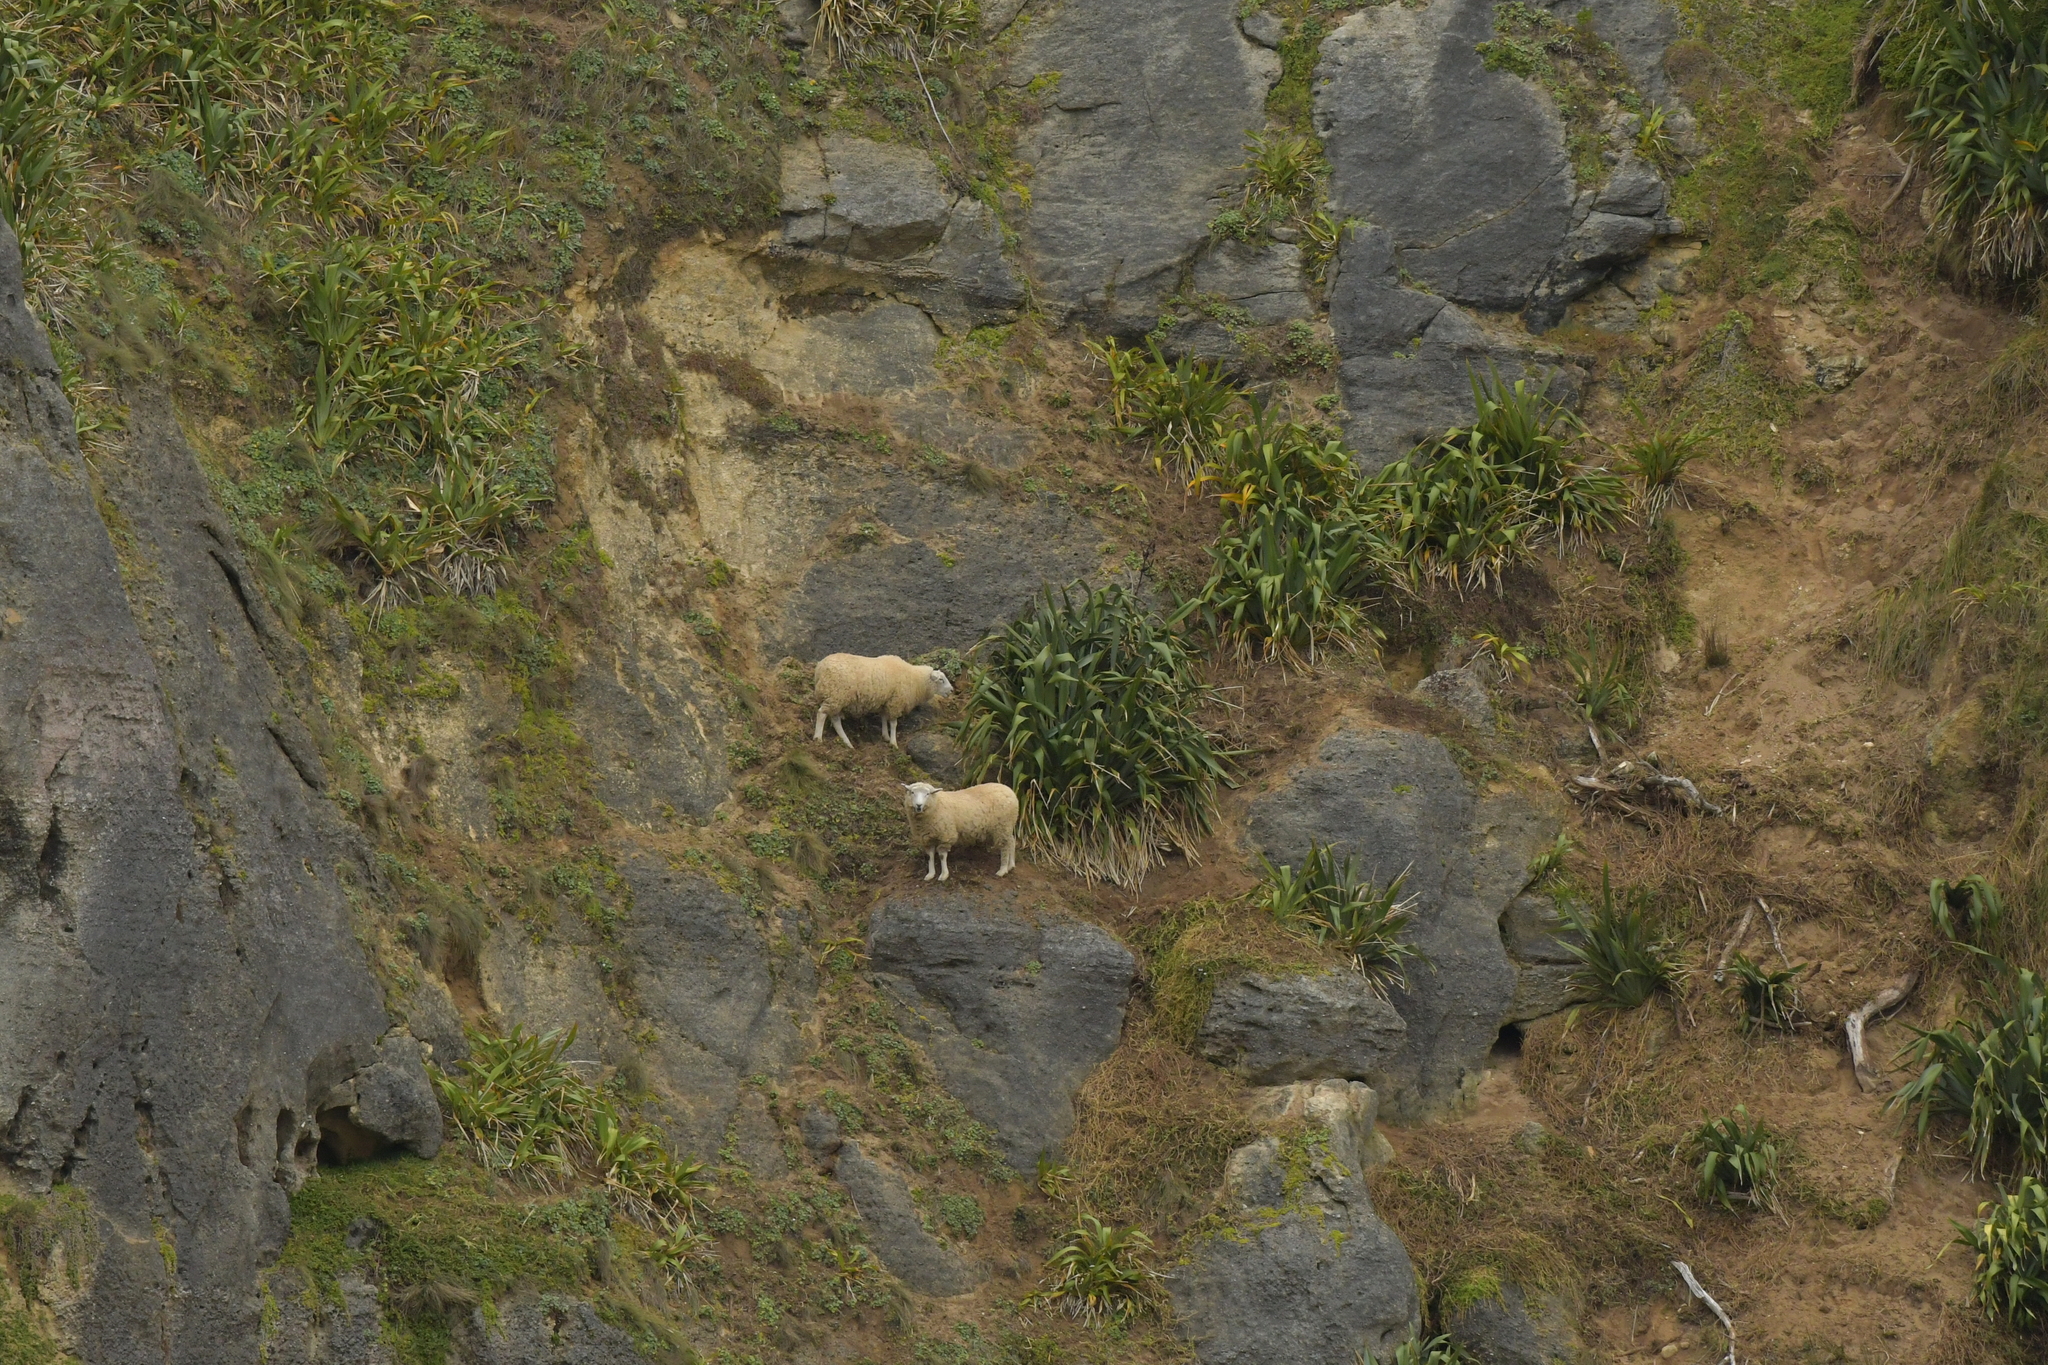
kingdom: Animalia
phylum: Chordata
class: Mammalia
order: Artiodactyla
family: Bovidae
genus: Ovis
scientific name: Ovis aries
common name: Domestic sheep
